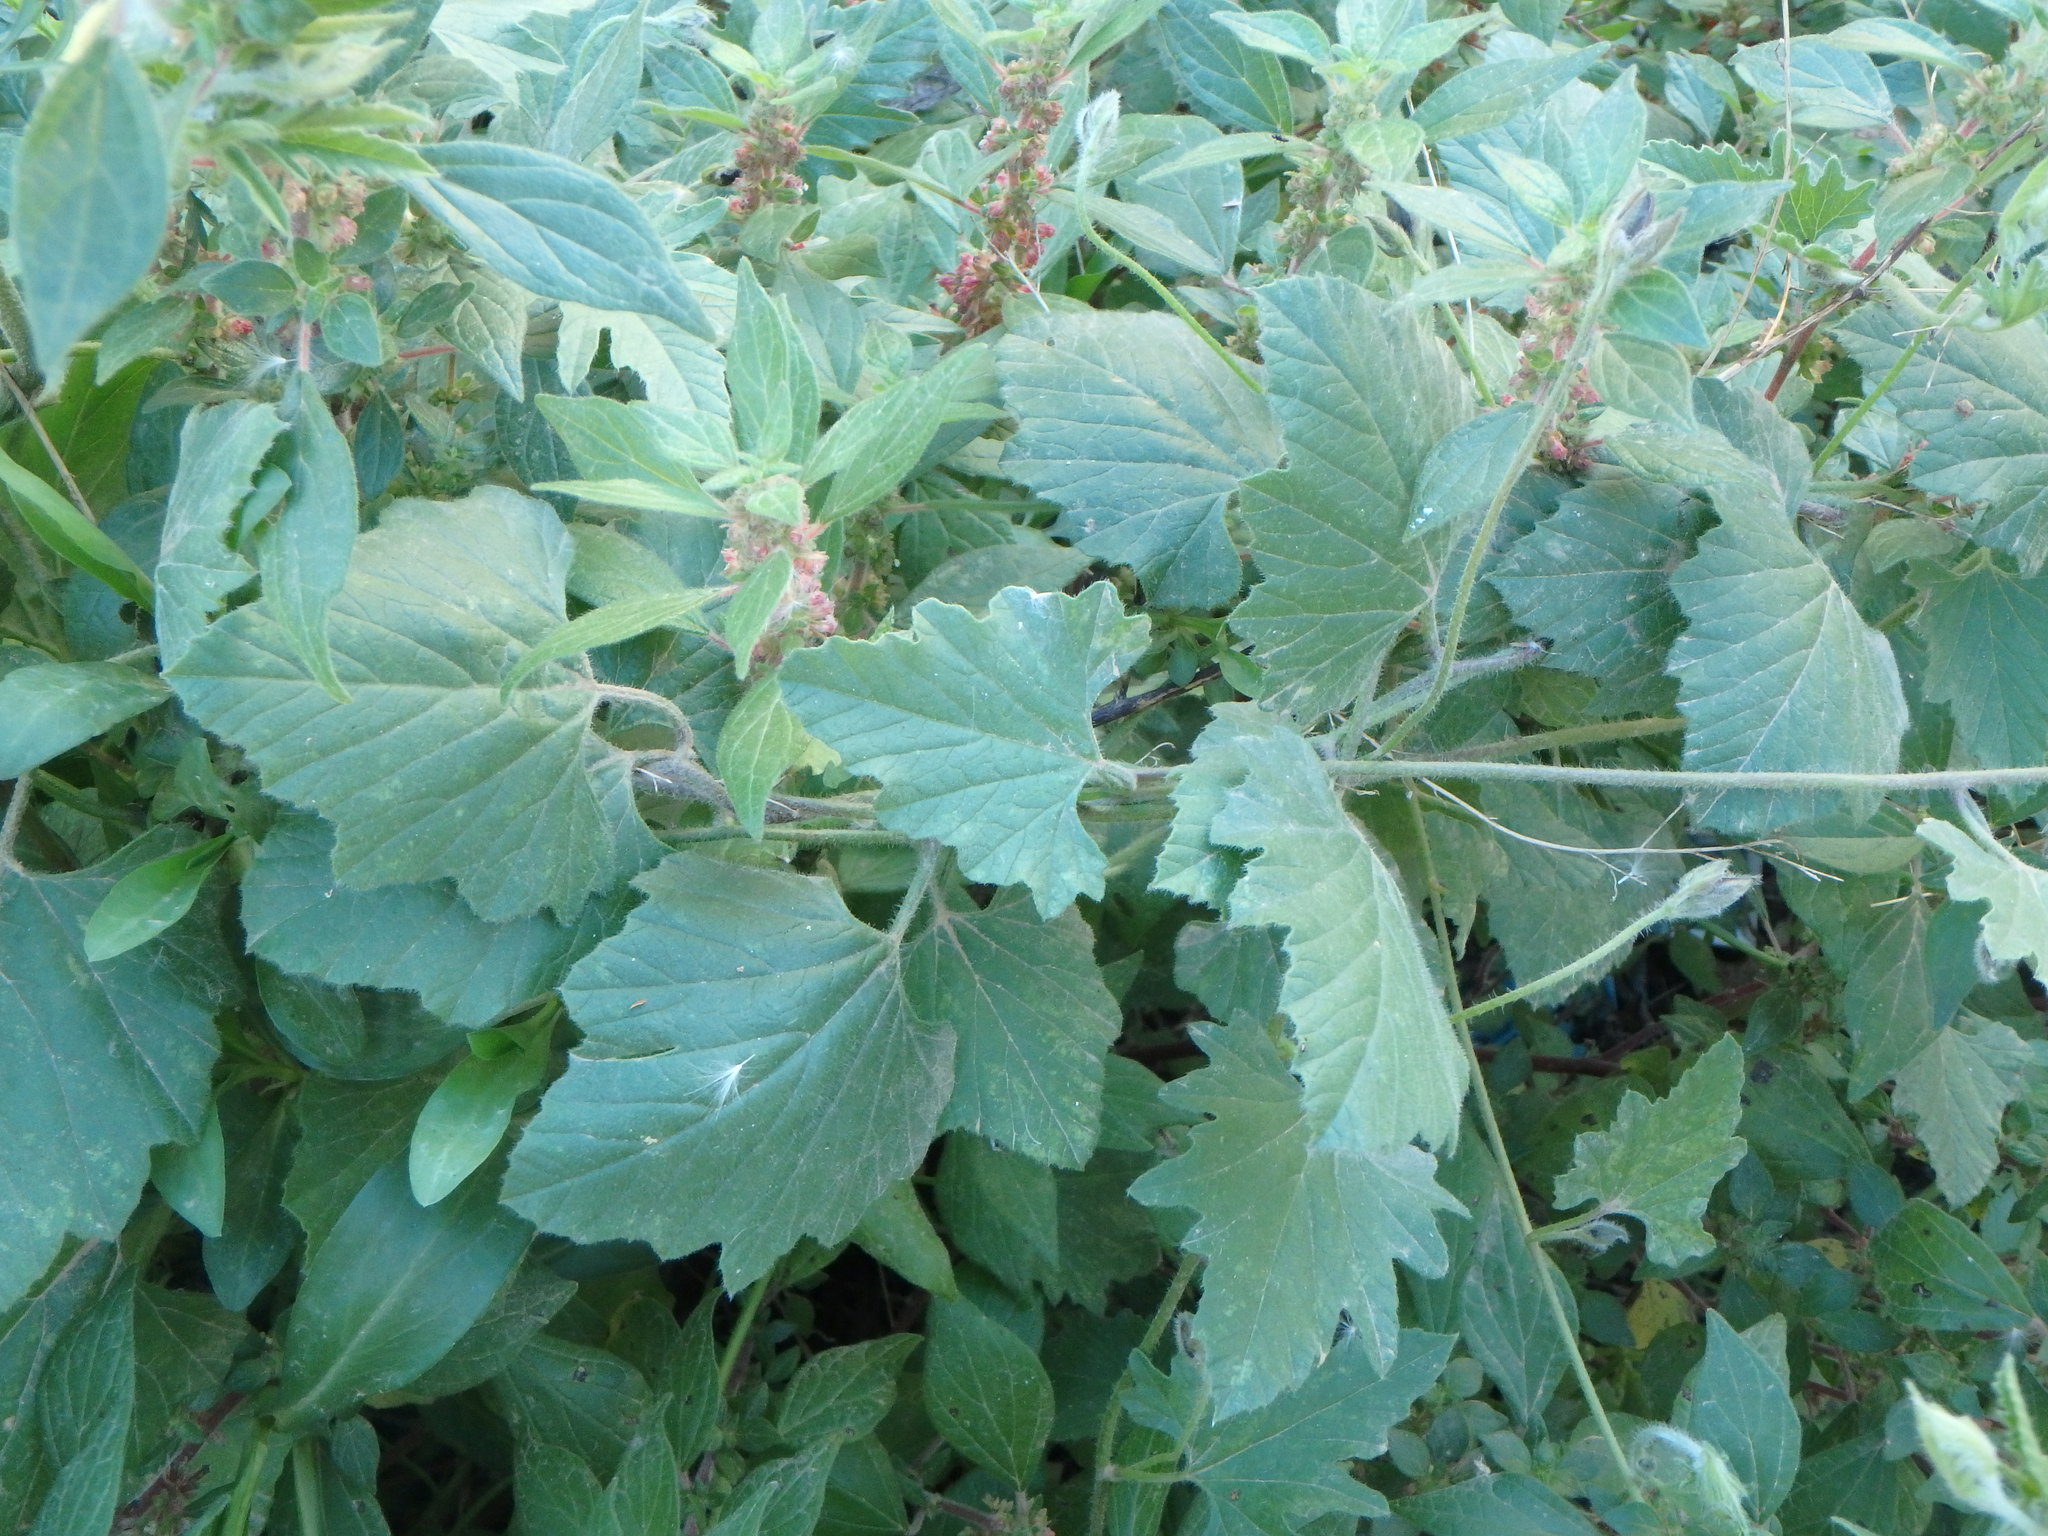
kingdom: Plantae
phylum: Tracheophyta
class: Magnoliopsida
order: Solanales
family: Convolvulaceae
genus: Convolvulus
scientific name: Convolvulus althaeoides
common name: Mallow bindweed
